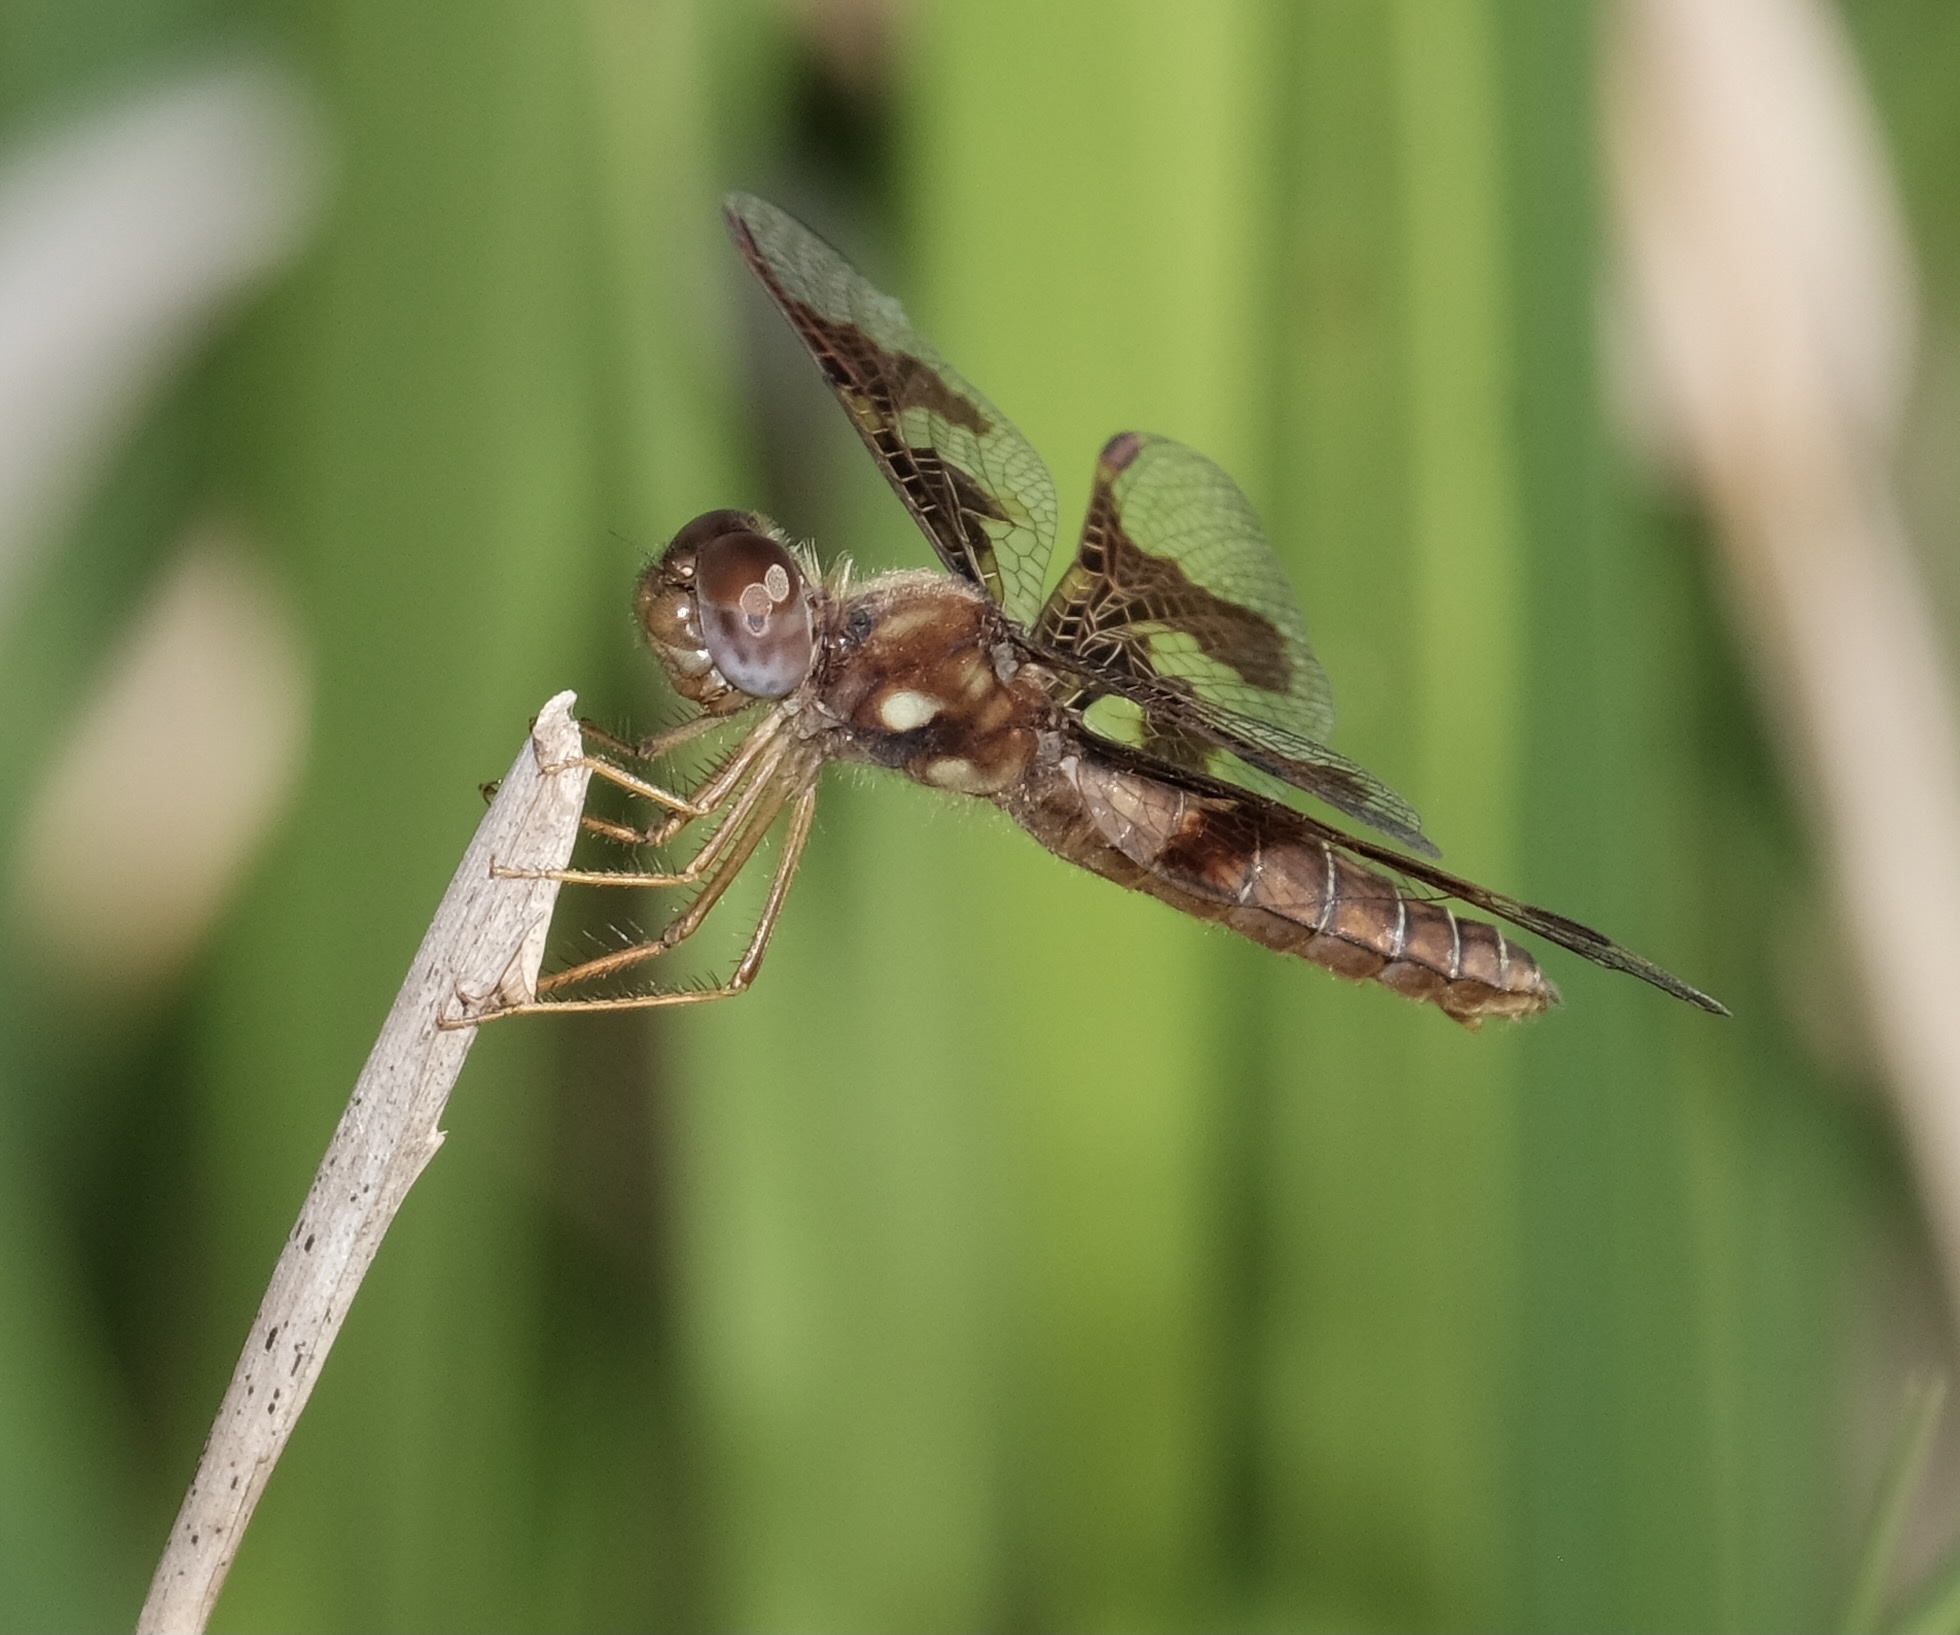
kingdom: Animalia
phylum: Arthropoda
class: Insecta
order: Odonata
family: Libellulidae
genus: Perithemis
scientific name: Perithemis tenera
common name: Eastern amberwing
